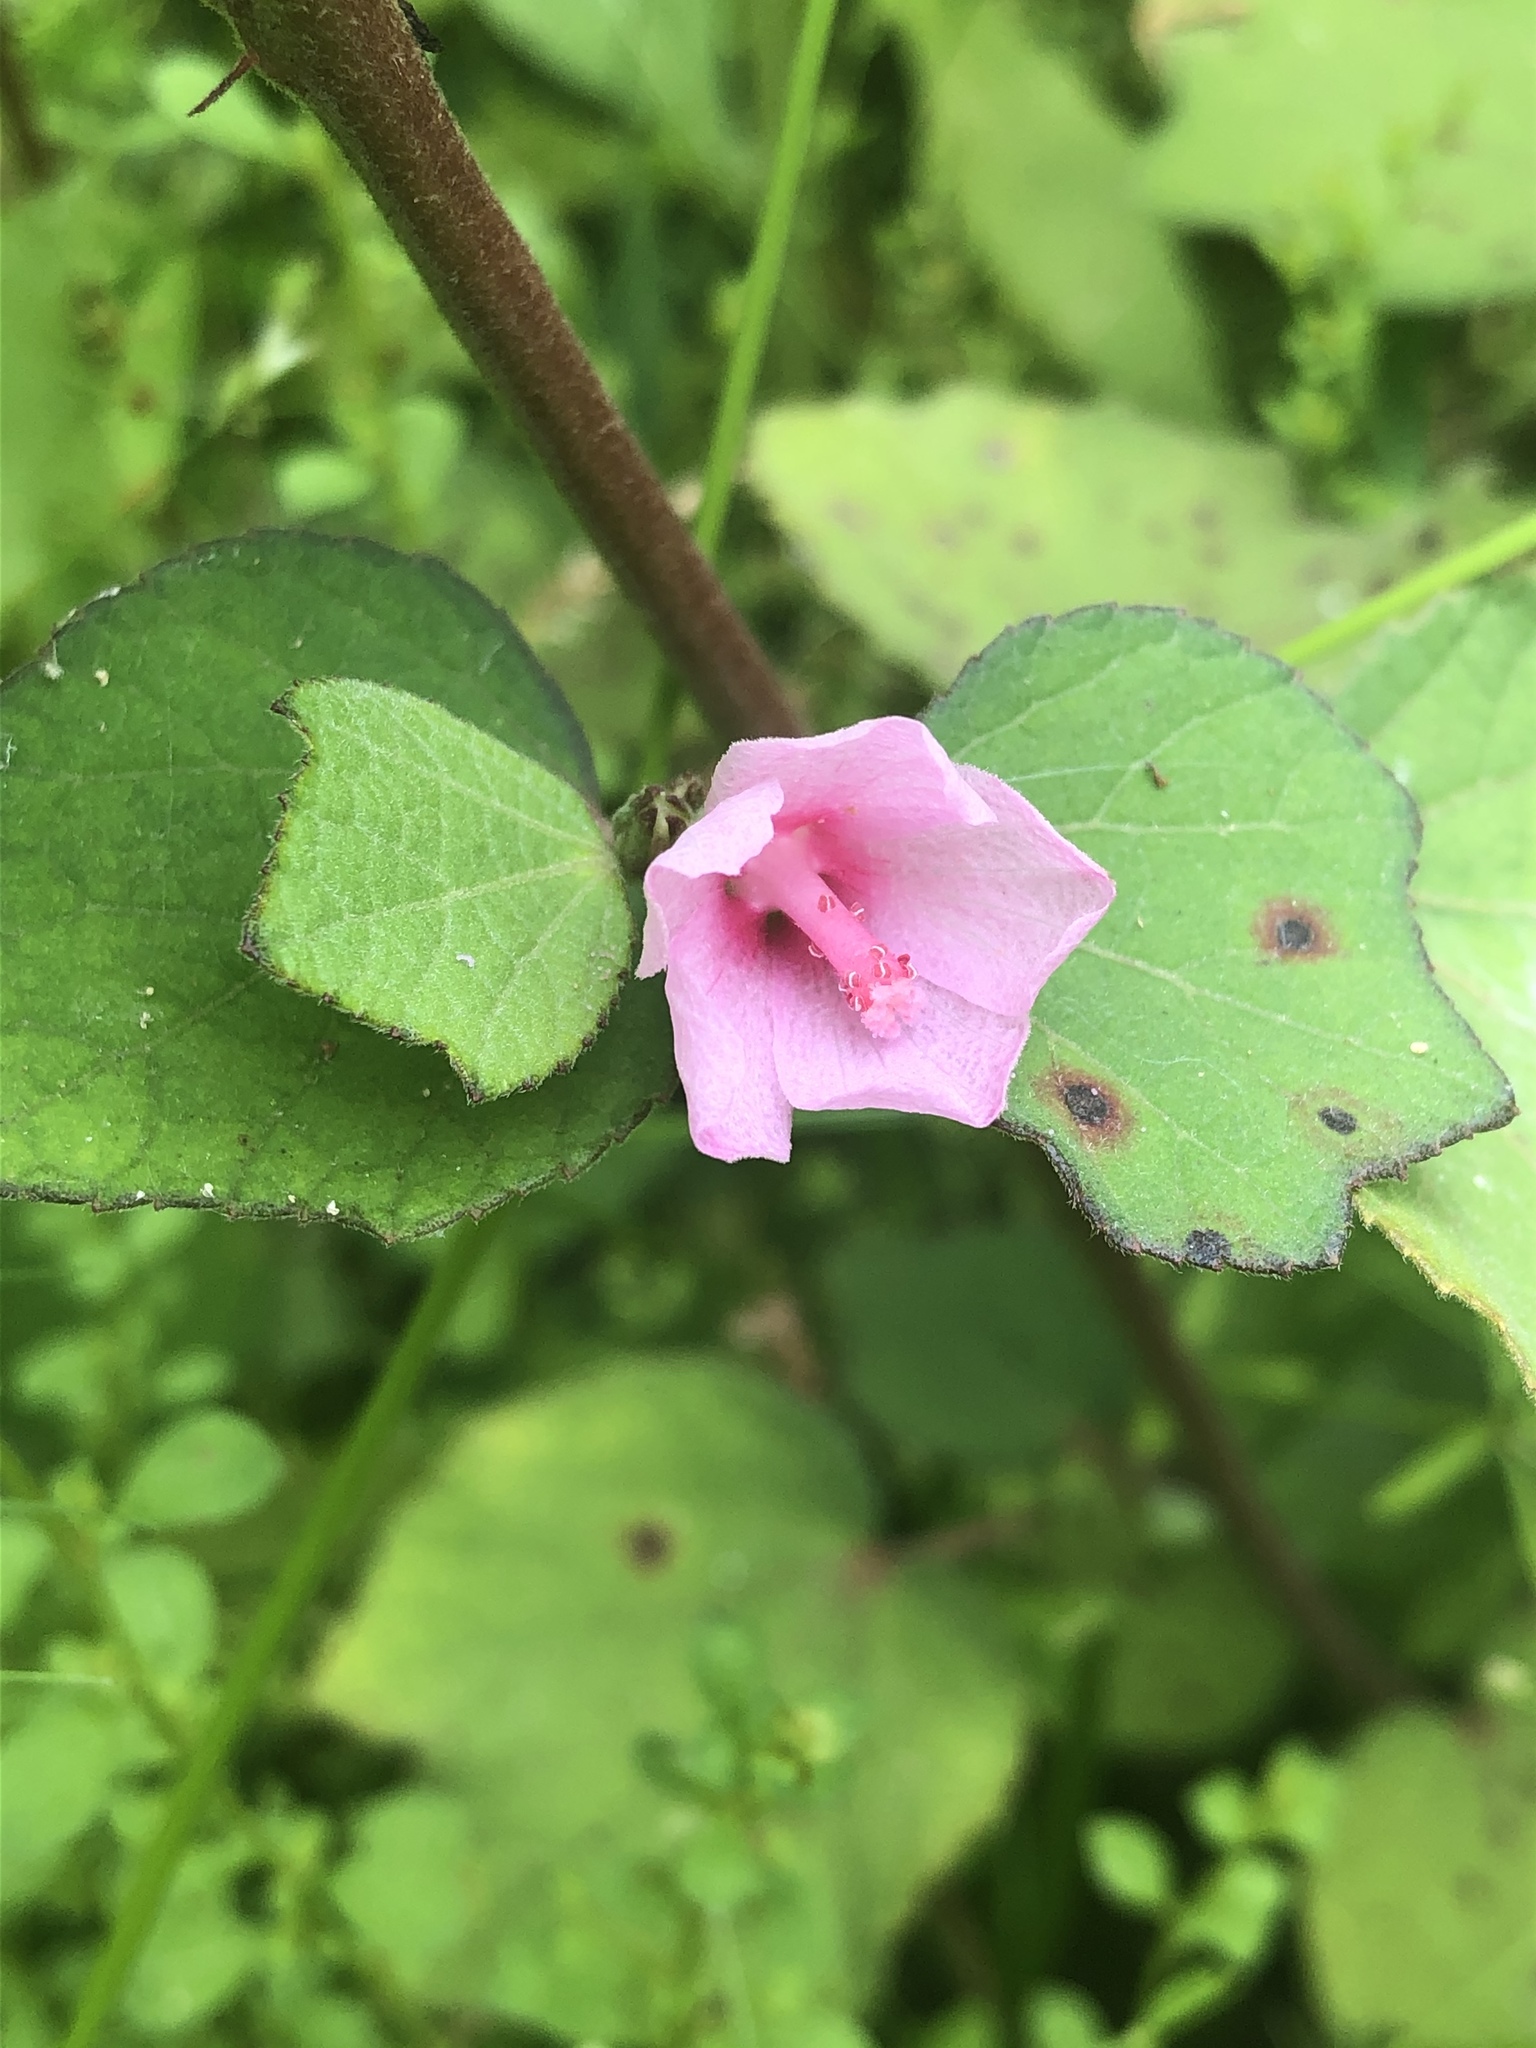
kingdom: Plantae
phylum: Tracheophyta
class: Magnoliopsida
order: Malvales
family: Malvaceae
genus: Urena
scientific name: Urena lobata
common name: Caesarweed
